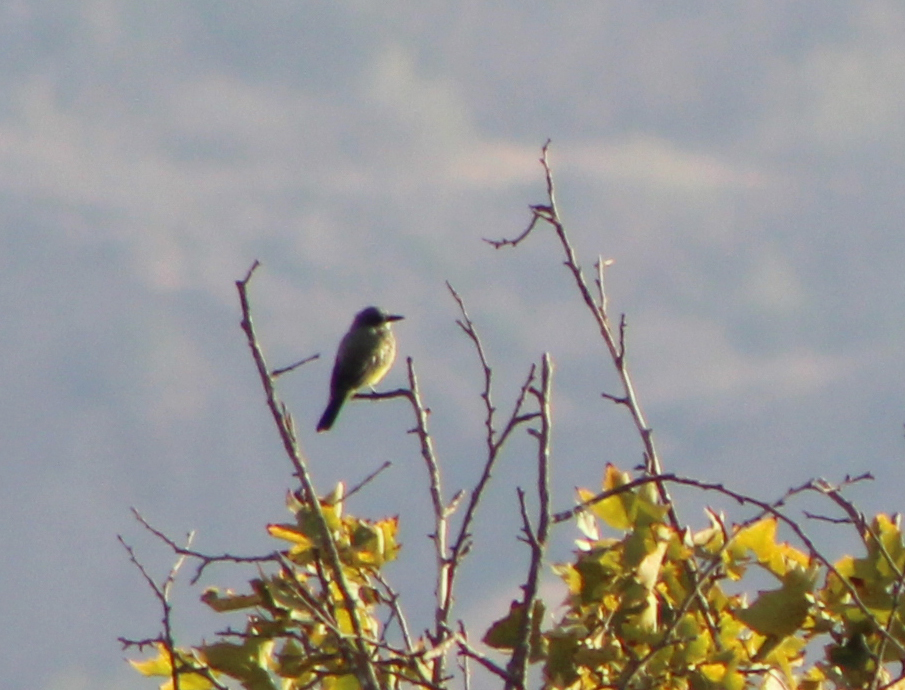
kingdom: Animalia
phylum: Chordata
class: Aves
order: Passeriformes
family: Tyrannidae
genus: Tyrannus
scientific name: Tyrannus vociferans
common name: Cassin's kingbird
